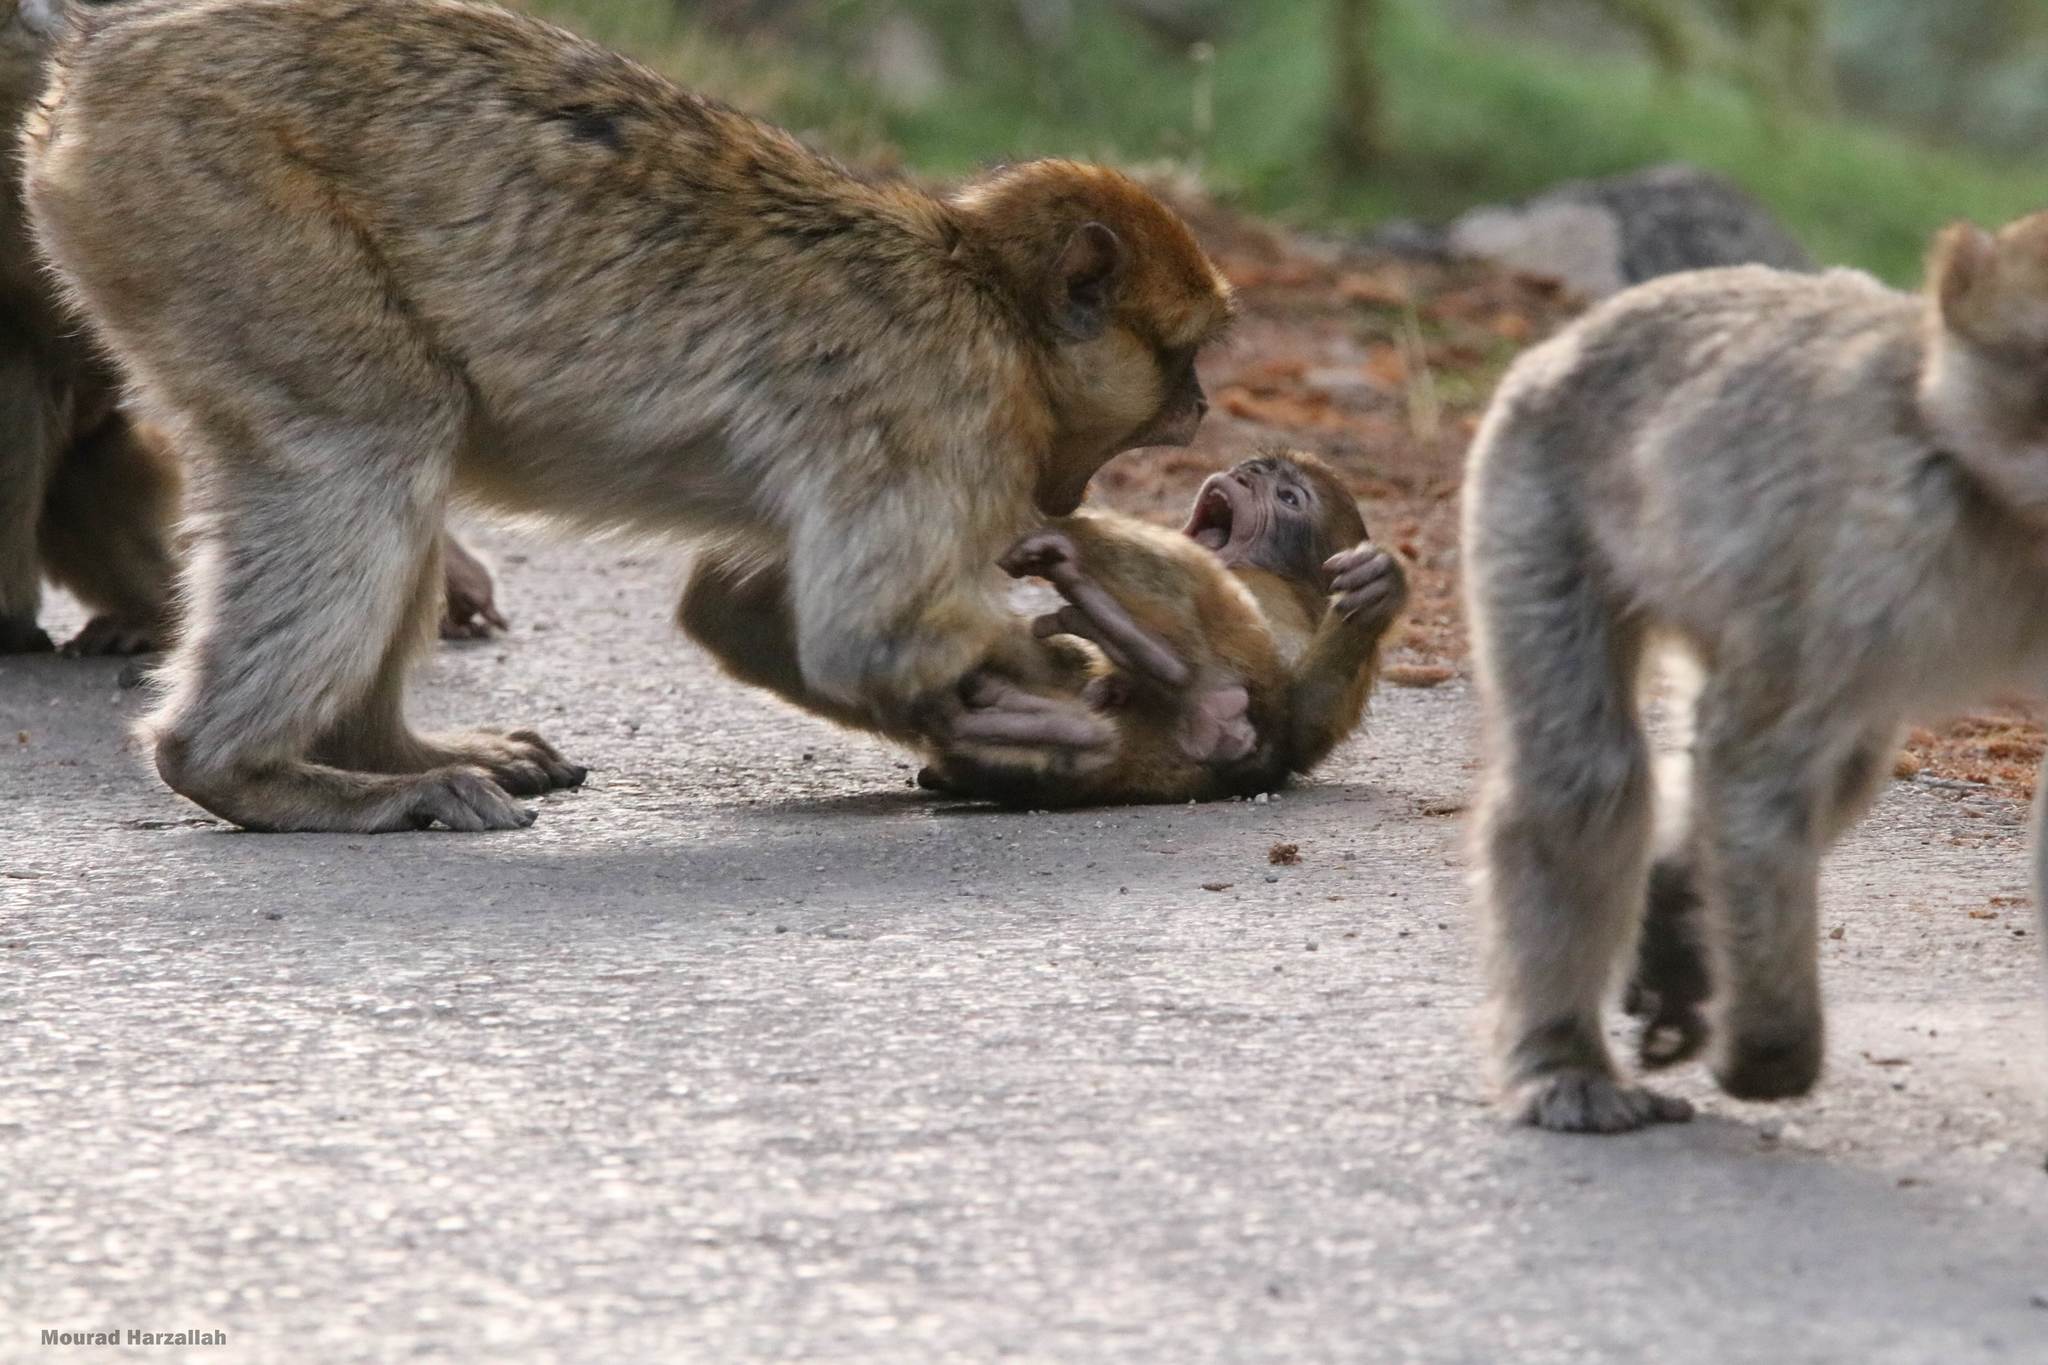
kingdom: Animalia
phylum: Chordata
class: Mammalia
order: Primates
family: Cercopithecidae
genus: Macaca
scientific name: Macaca sylvanus
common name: Barbary macaque
